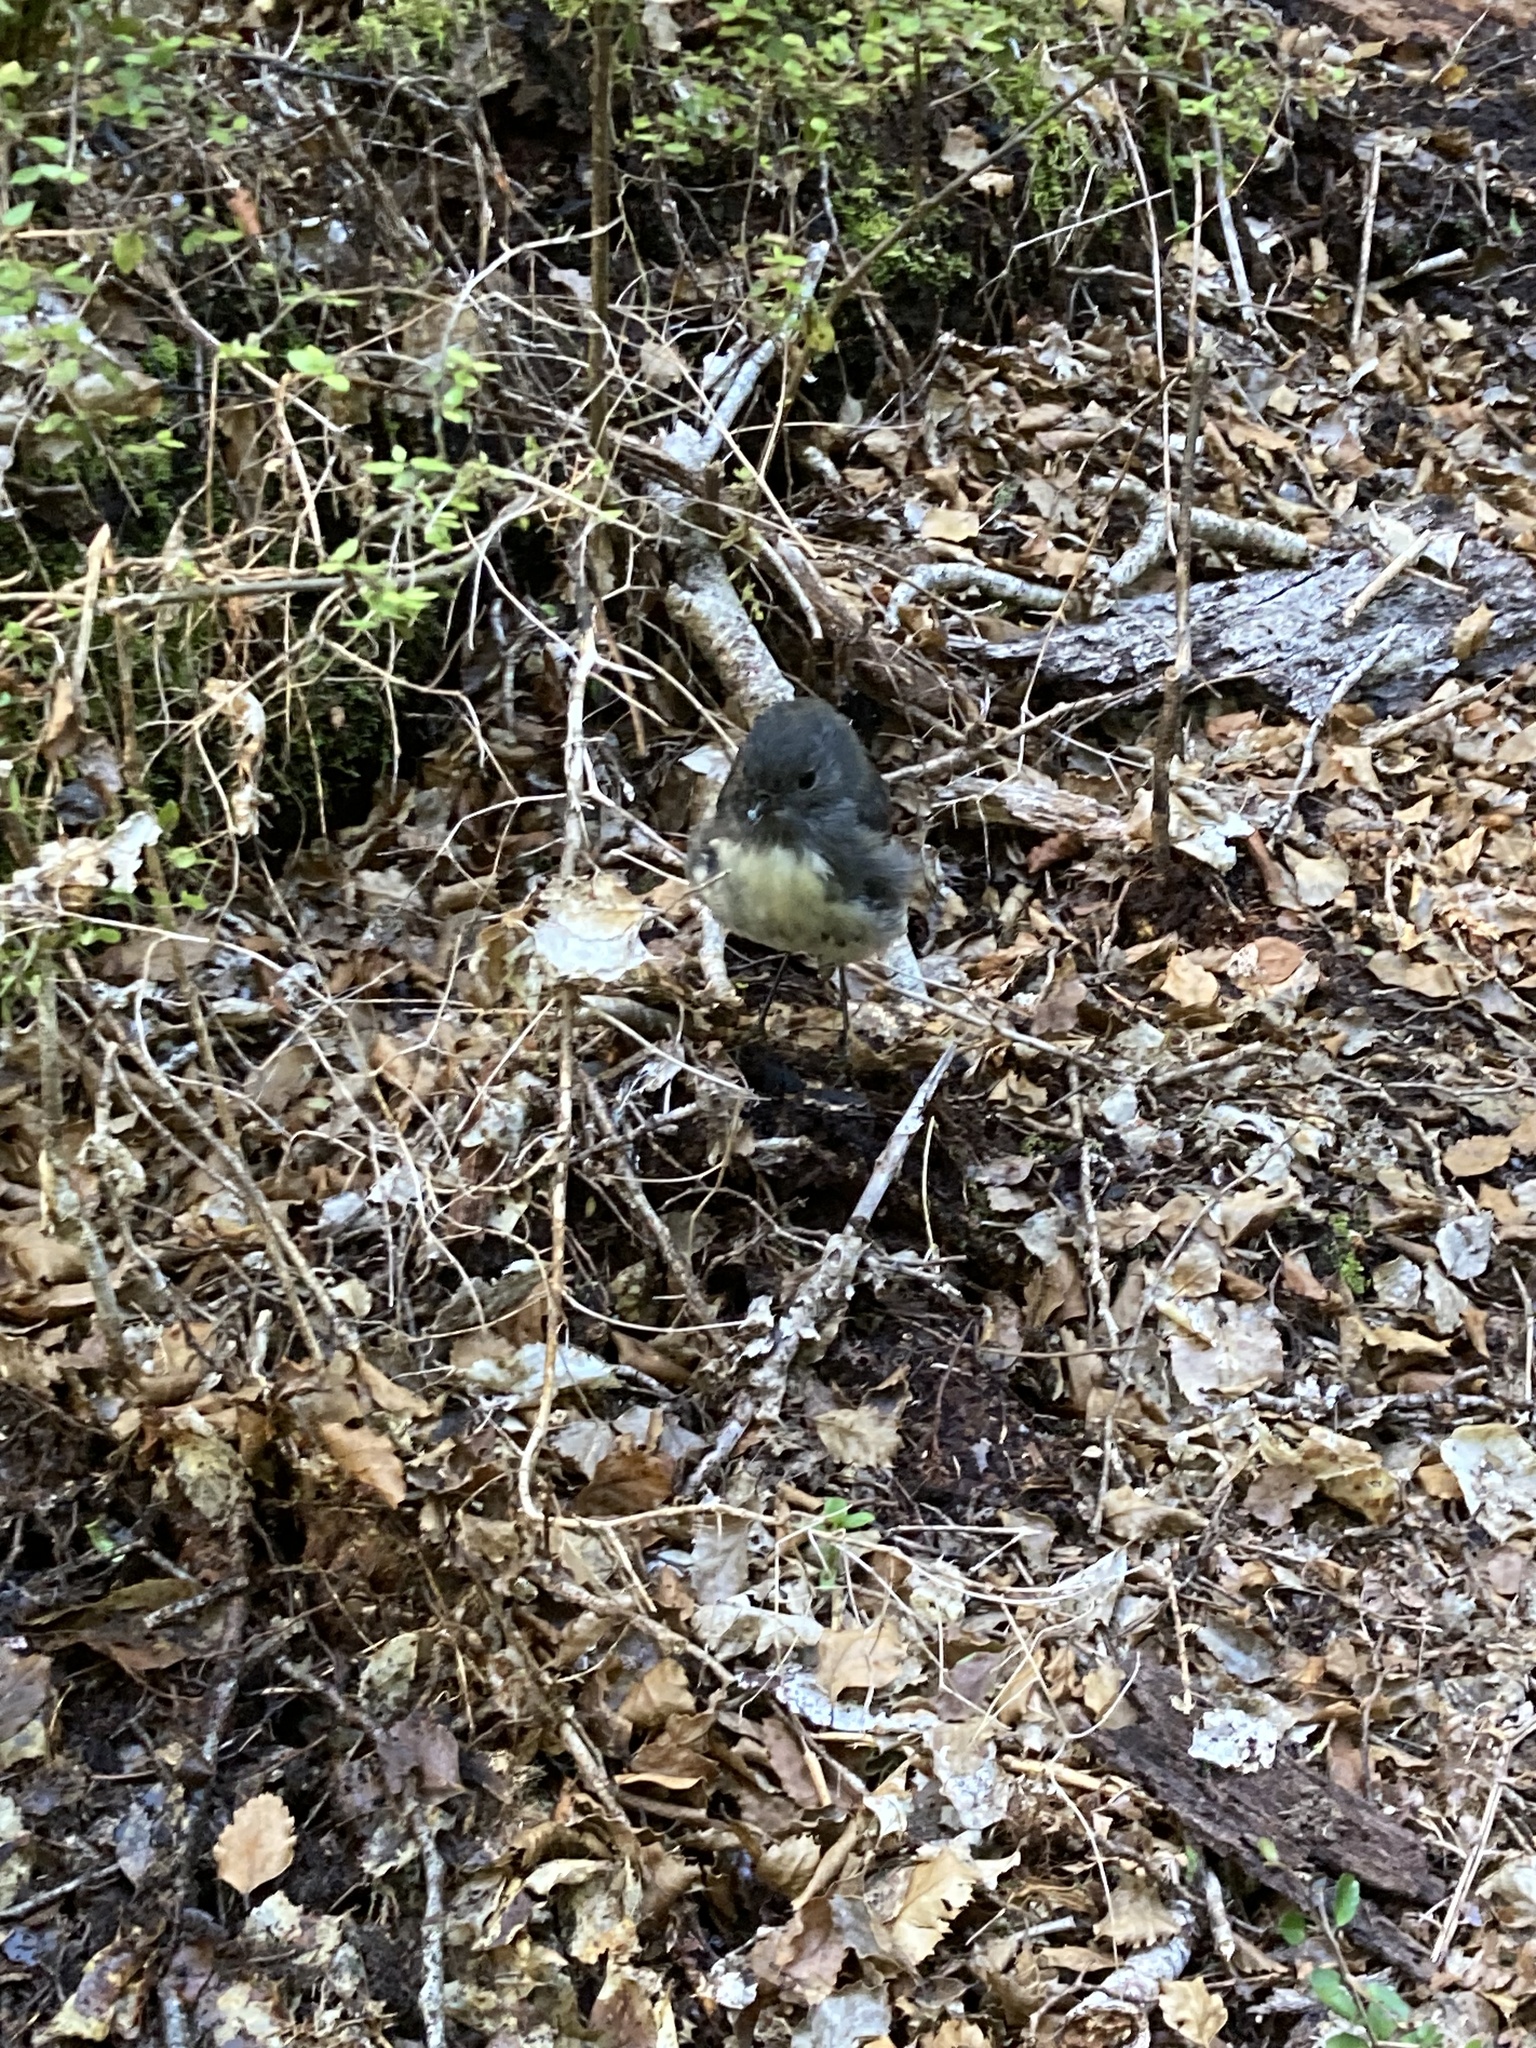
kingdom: Animalia
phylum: Chordata
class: Aves
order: Passeriformes
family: Petroicidae
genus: Petroica
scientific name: Petroica australis
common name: New zealand robin
